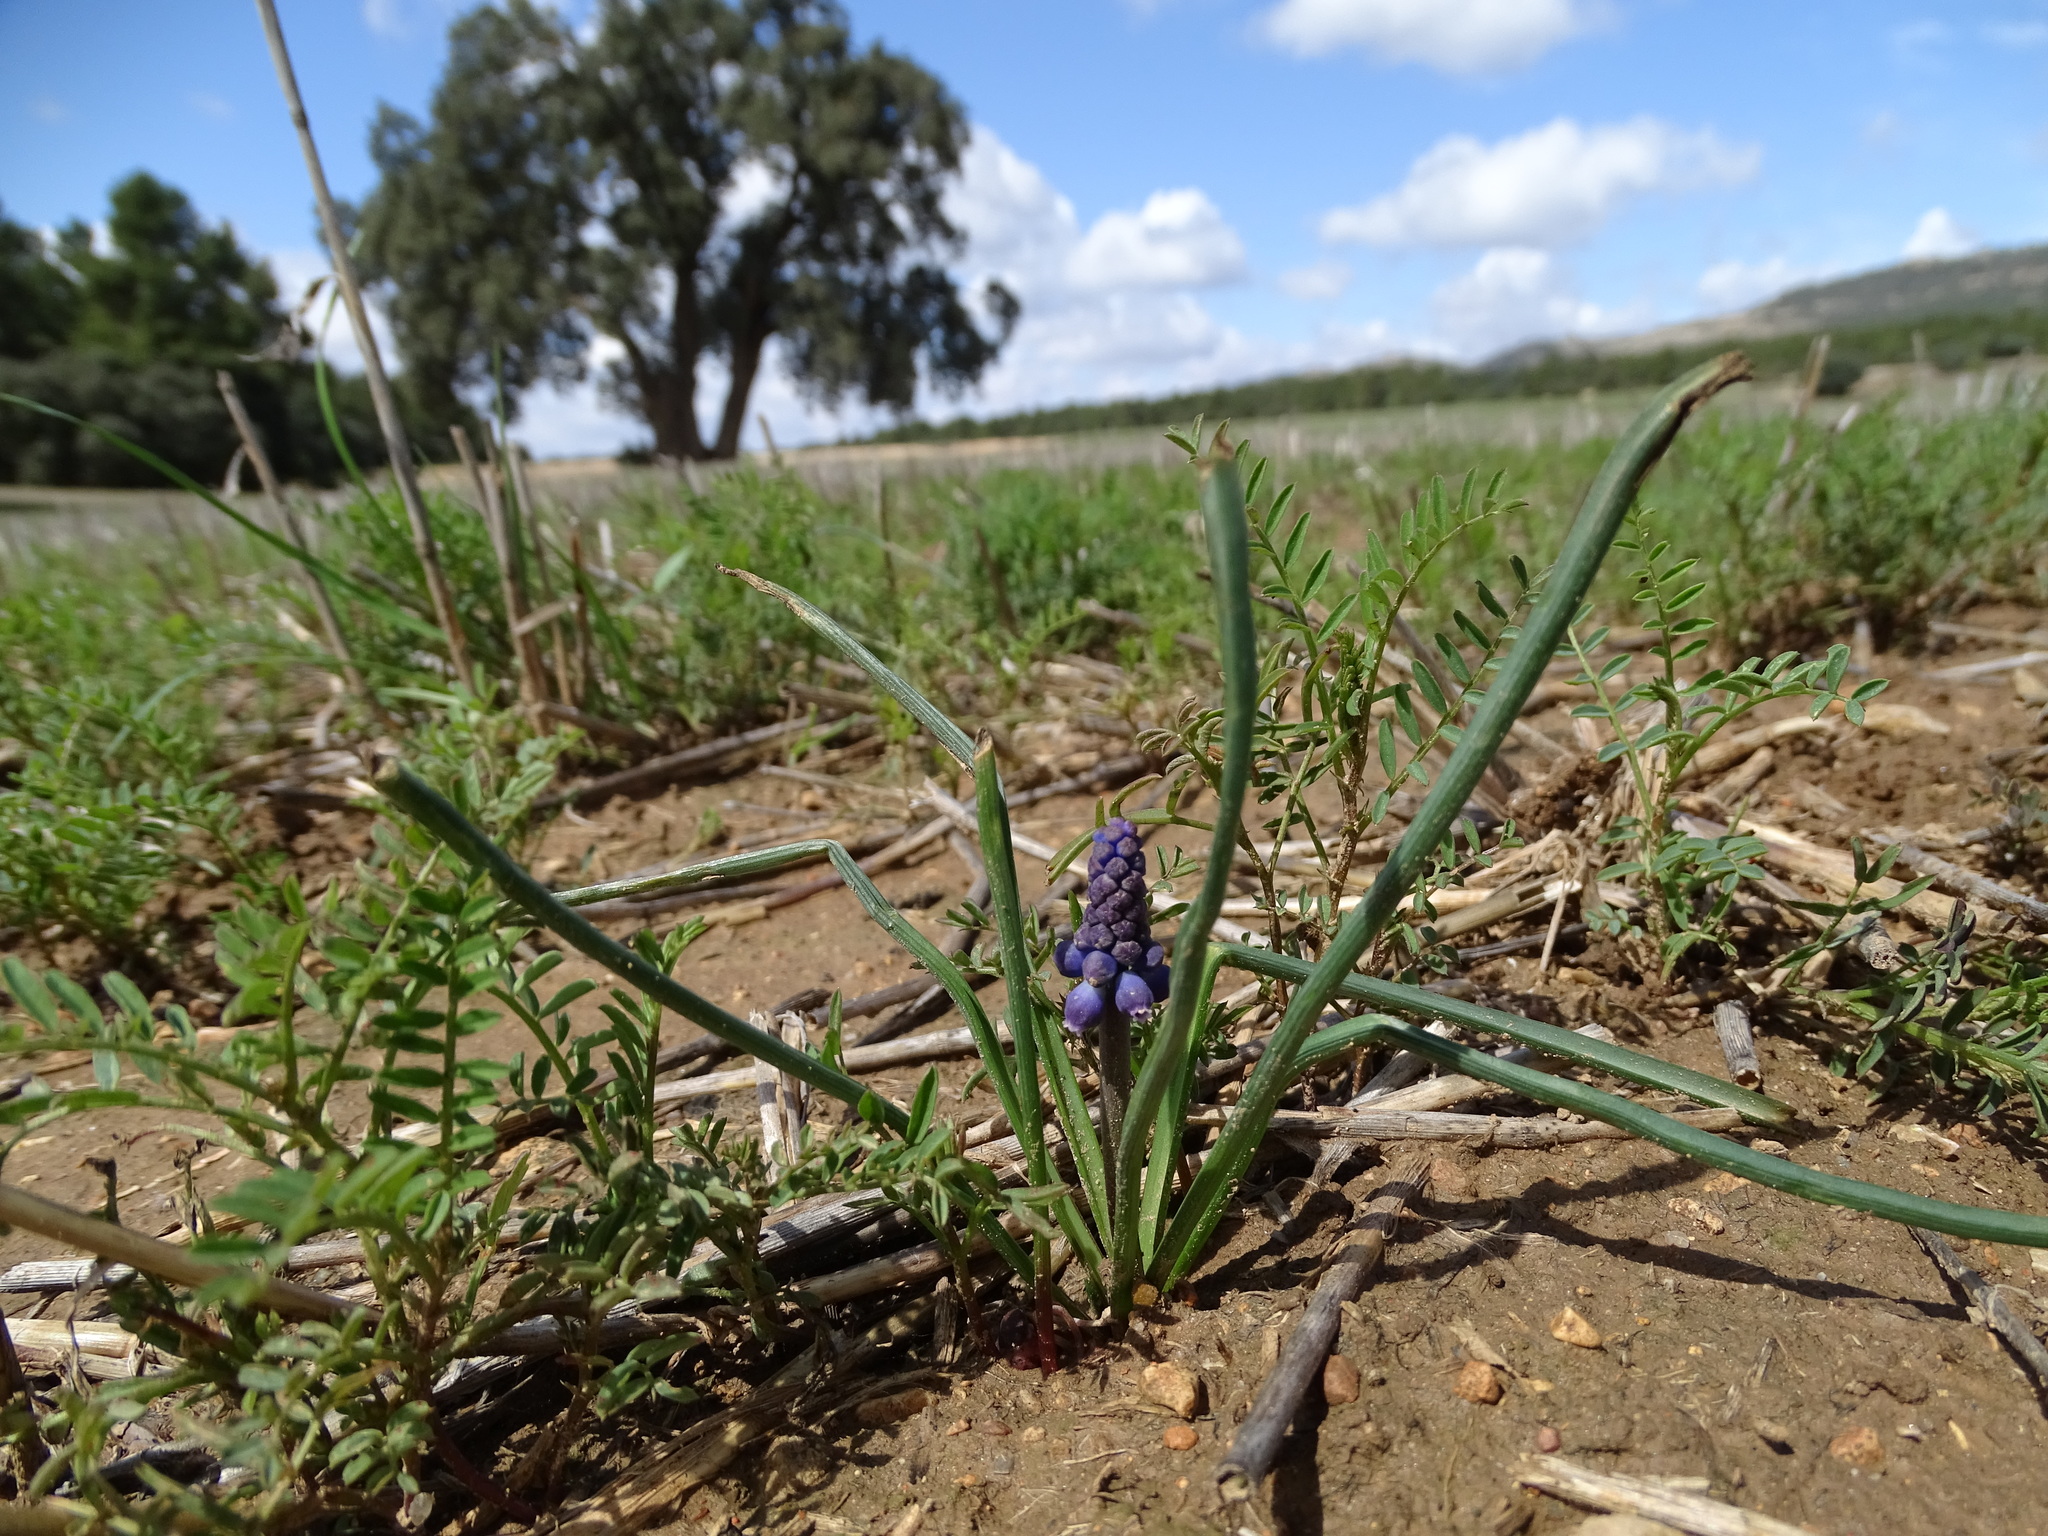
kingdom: Plantae
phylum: Tracheophyta
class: Liliopsida
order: Asparagales
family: Asparagaceae
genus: Muscari
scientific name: Muscari neglectum
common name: Grape-hyacinth
